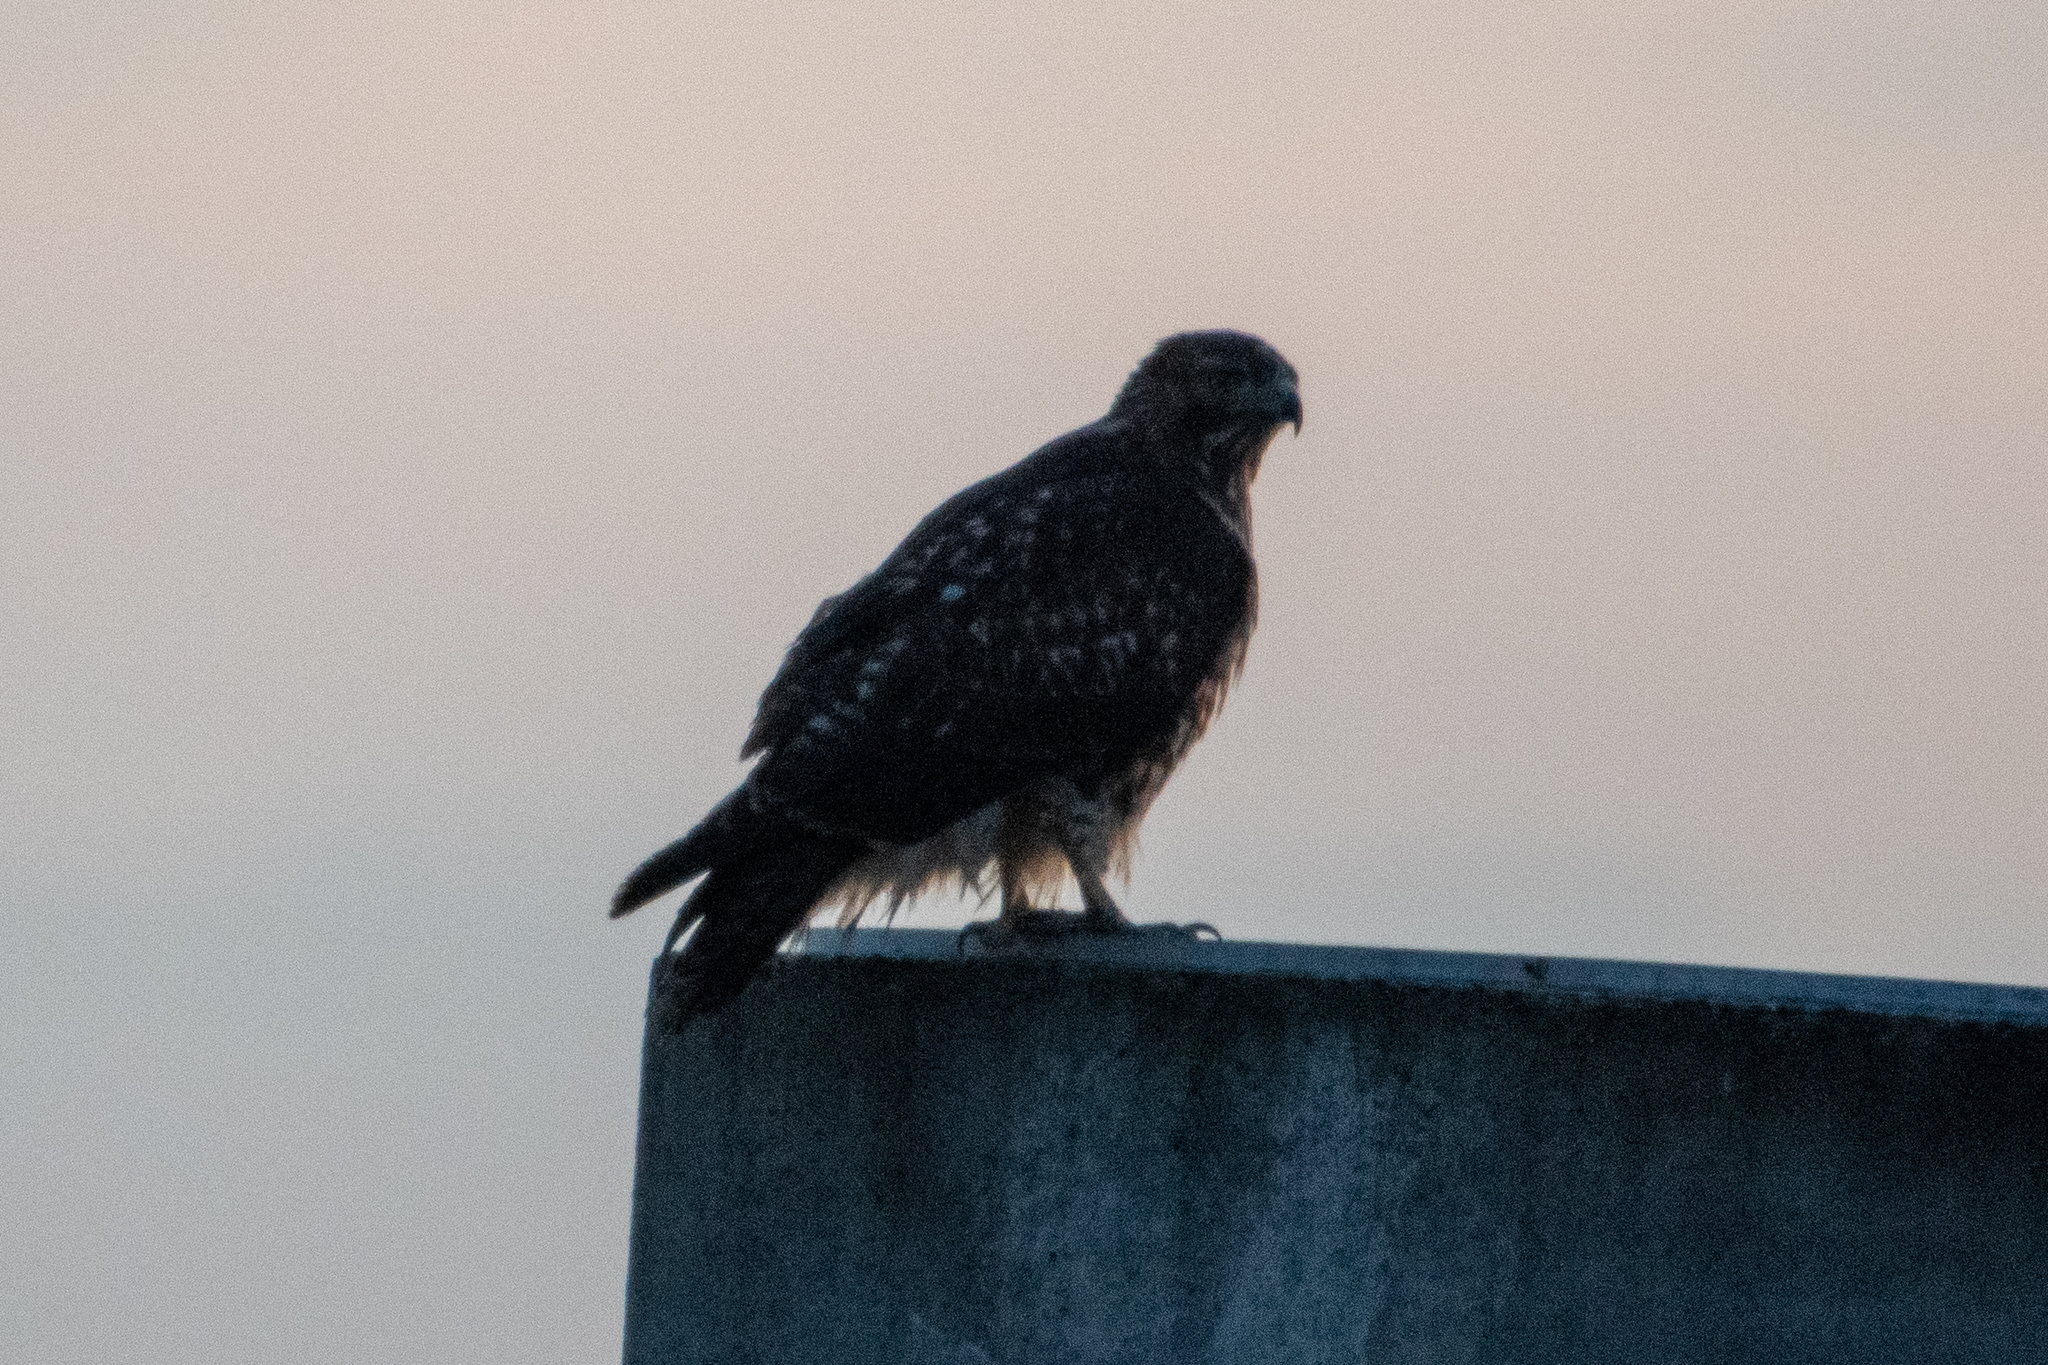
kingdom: Animalia
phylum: Chordata
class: Aves
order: Accipitriformes
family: Accipitridae
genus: Buteo
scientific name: Buteo jamaicensis
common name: Red-tailed hawk
